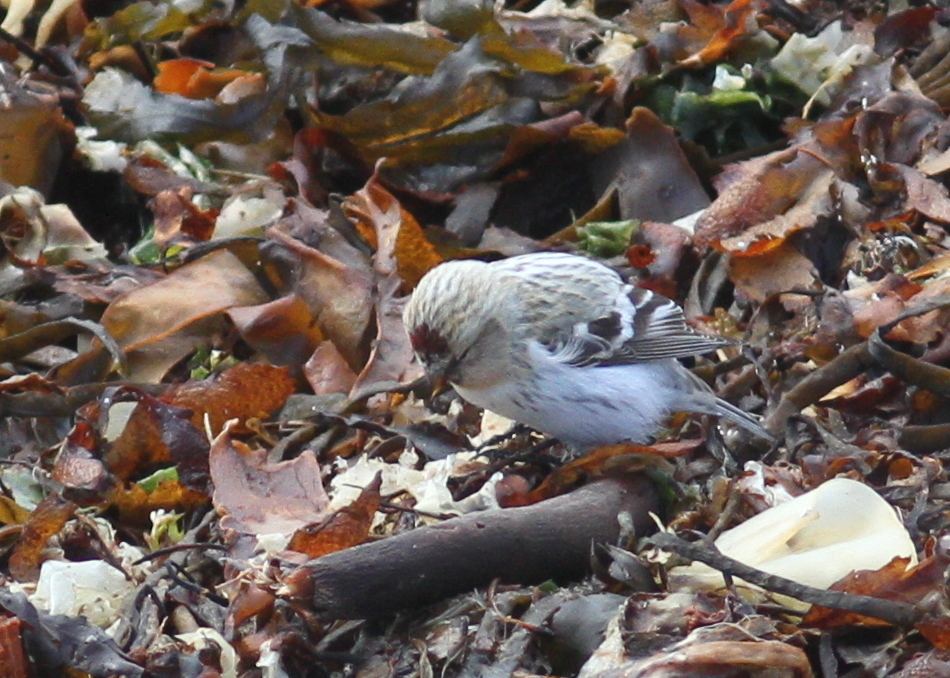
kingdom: Animalia
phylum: Chordata
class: Aves
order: Passeriformes
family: Fringillidae
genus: Acanthis
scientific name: Acanthis hornemanni
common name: Arctic redpoll
